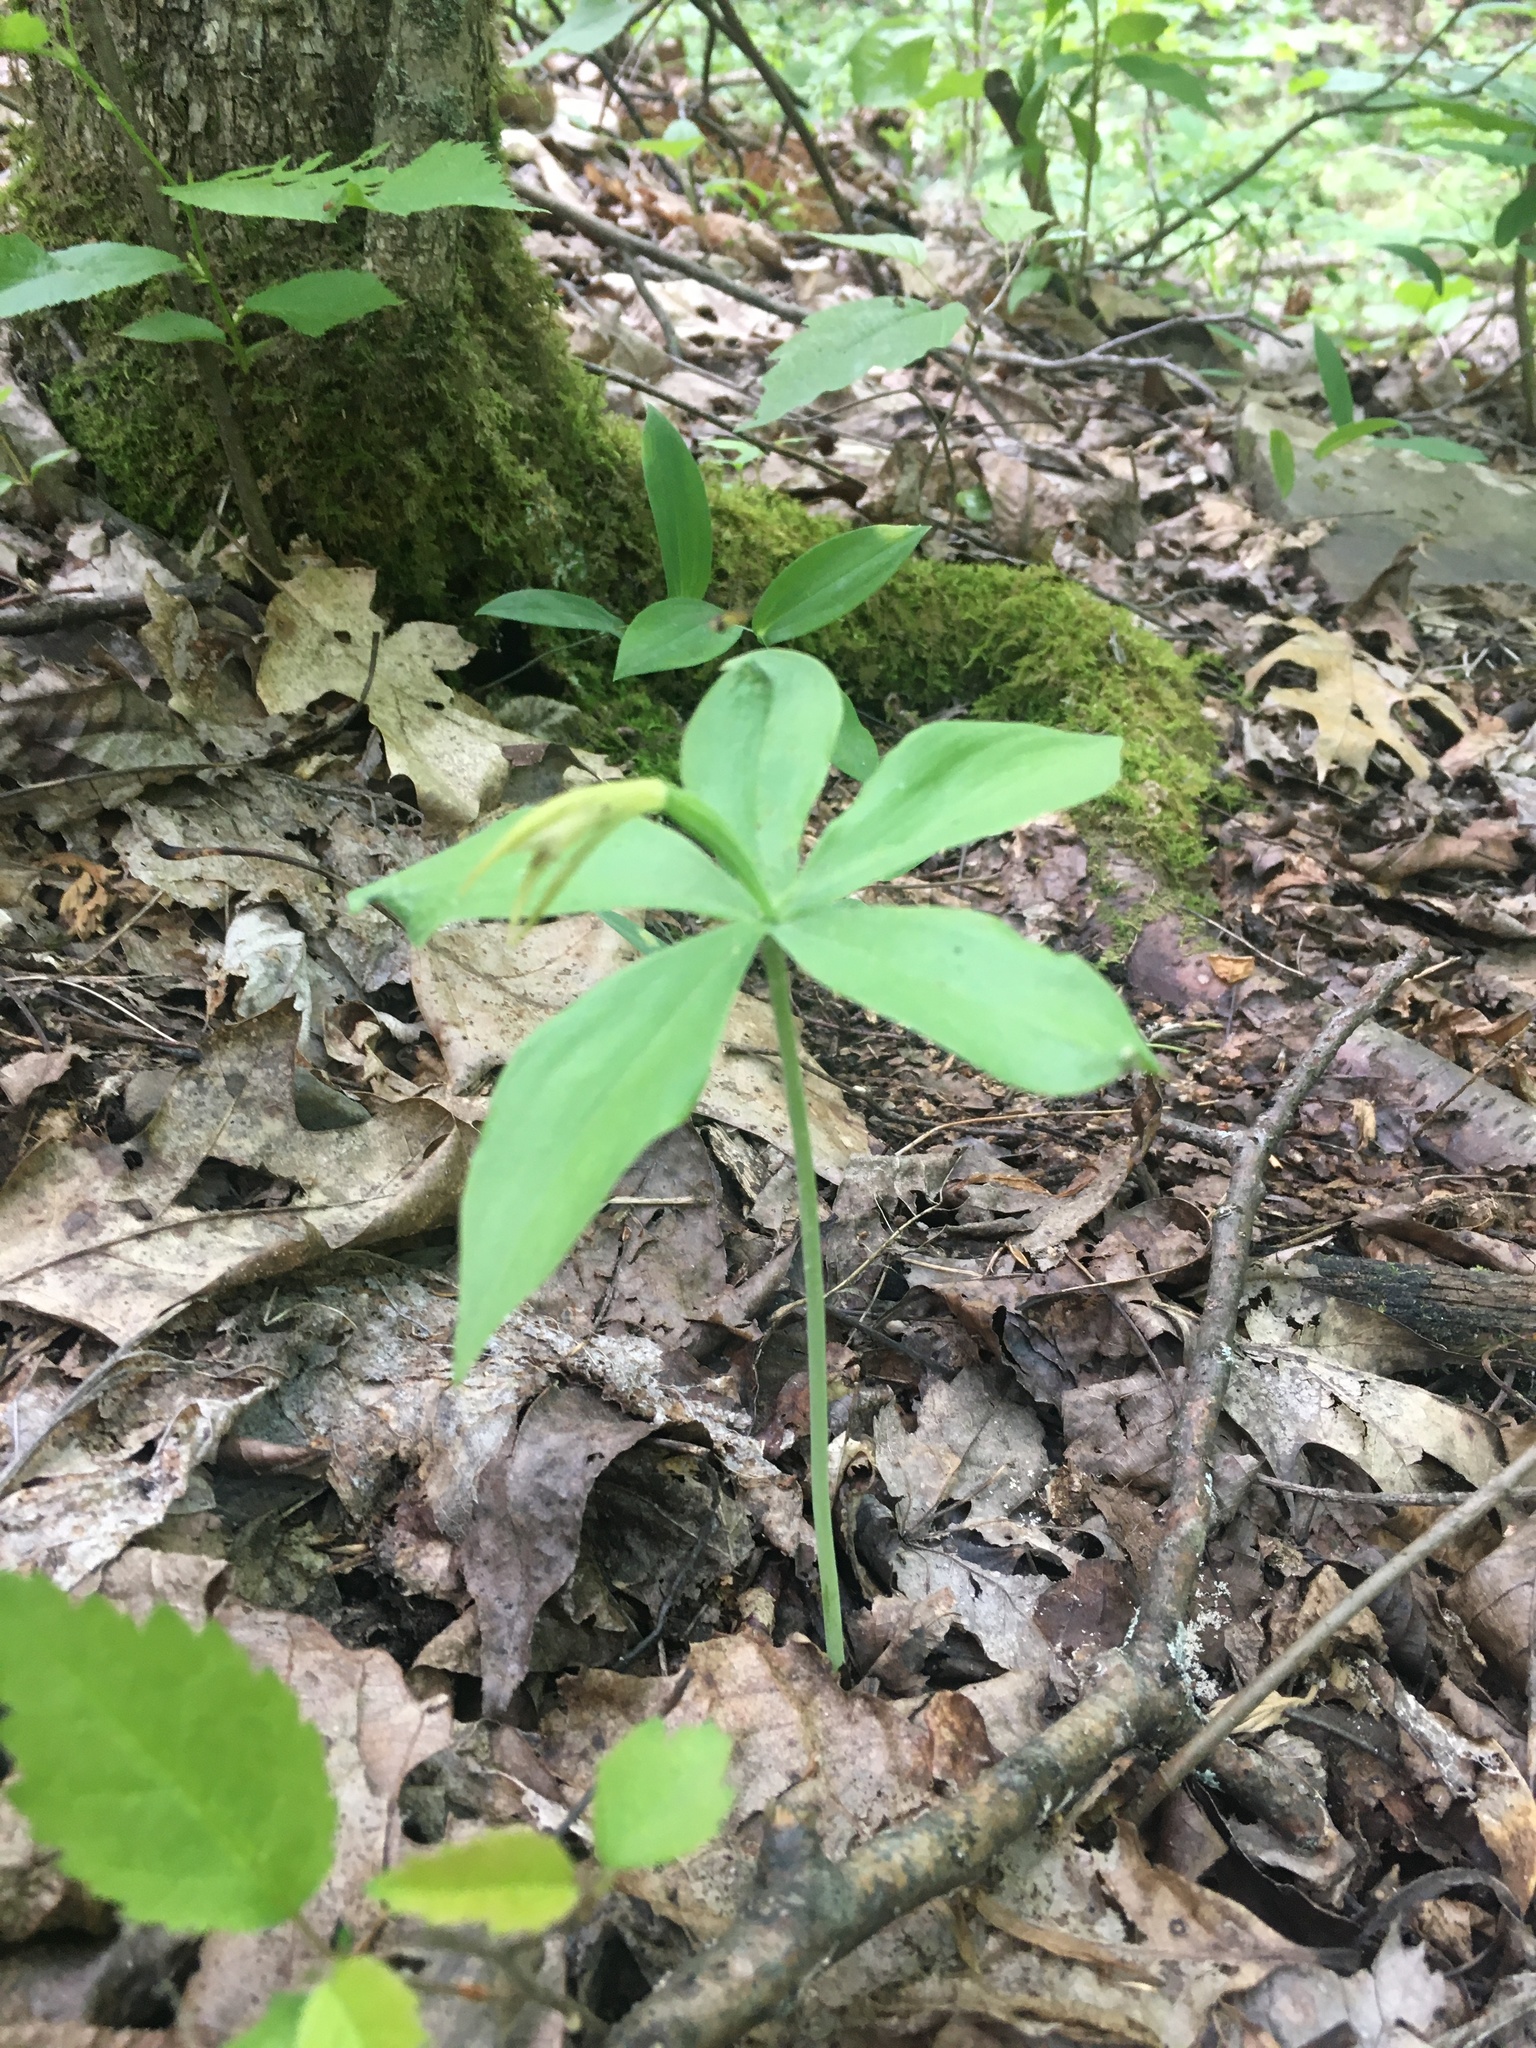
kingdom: Plantae
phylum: Tracheophyta
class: Liliopsida
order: Asparagales
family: Orchidaceae
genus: Isotria
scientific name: Isotria medeoloides
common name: Small whorled pogonia
